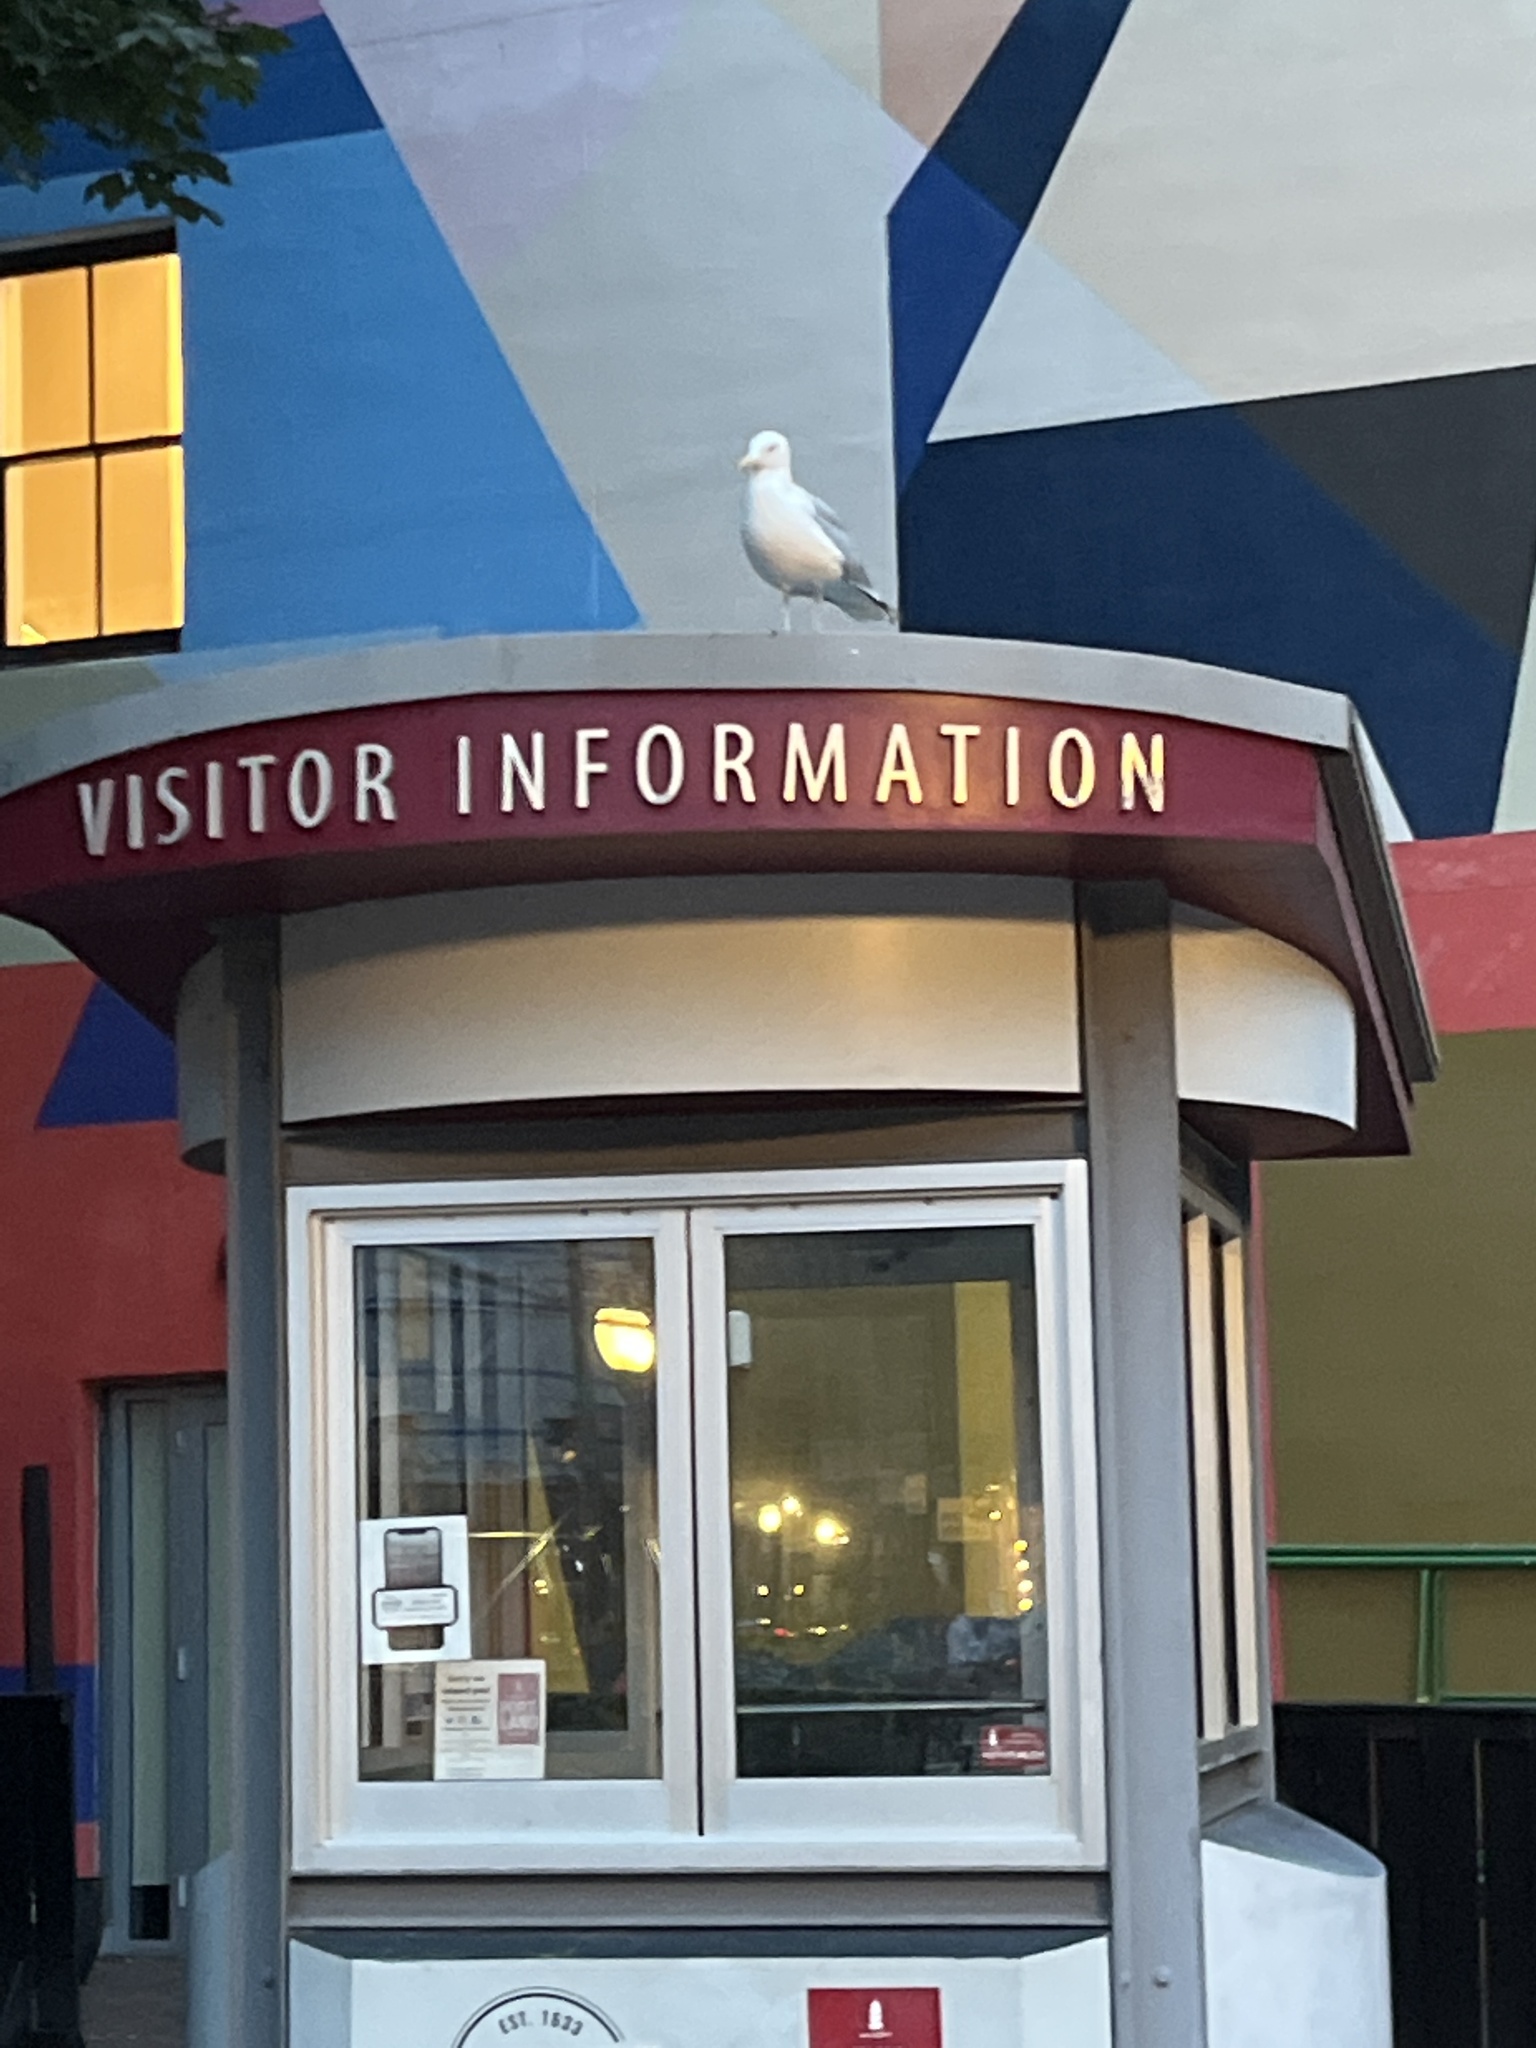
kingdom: Animalia
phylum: Chordata
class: Aves
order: Charadriiformes
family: Laridae
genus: Larus
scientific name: Larus argentatus
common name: Herring gull
